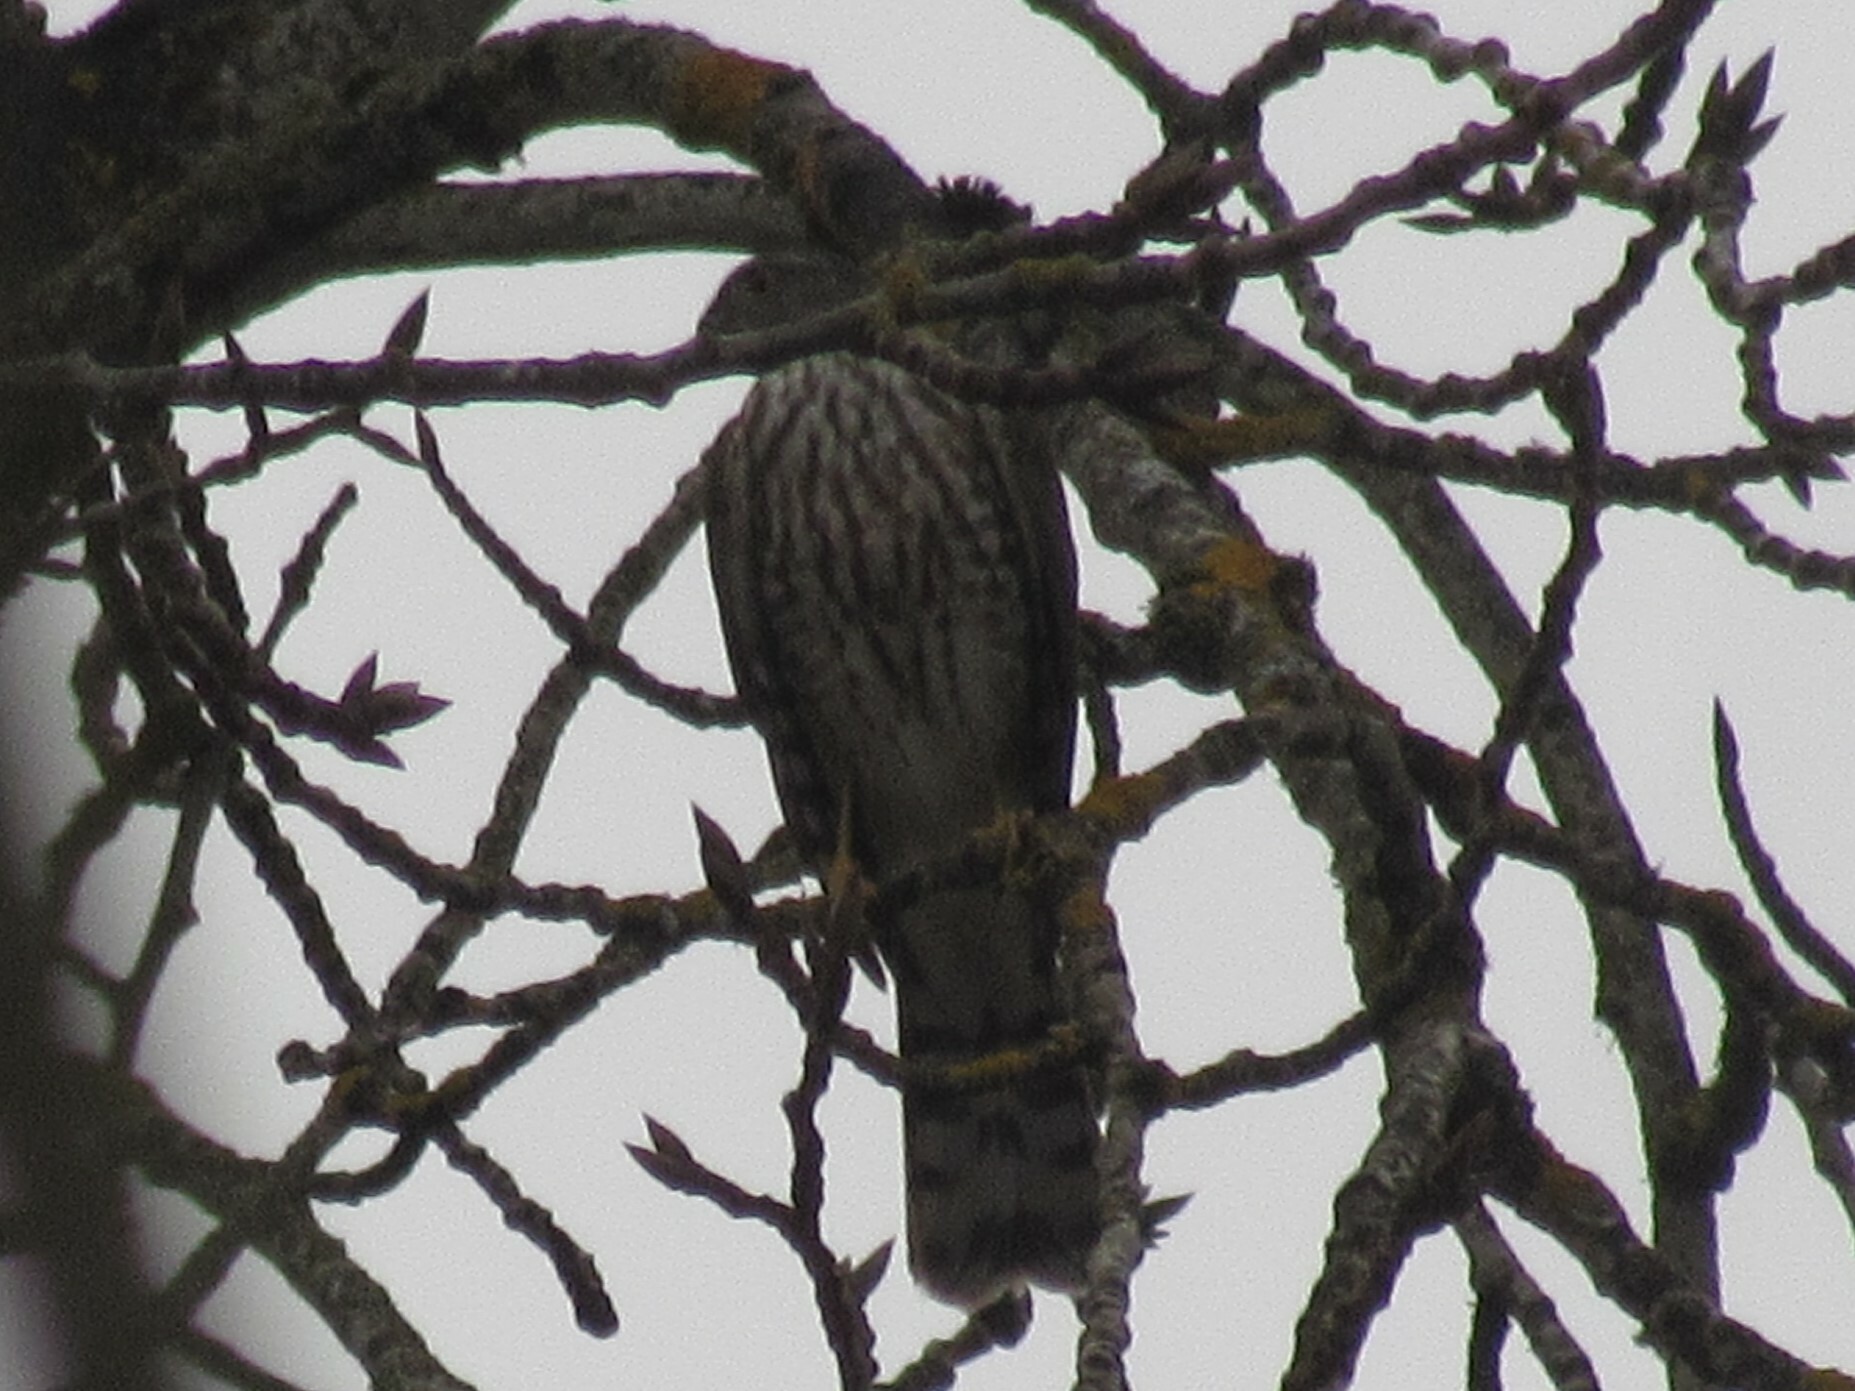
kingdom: Animalia
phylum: Chordata
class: Aves
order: Accipitriformes
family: Accipitridae
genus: Accipiter
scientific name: Accipiter striatus
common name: Sharp-shinned hawk
